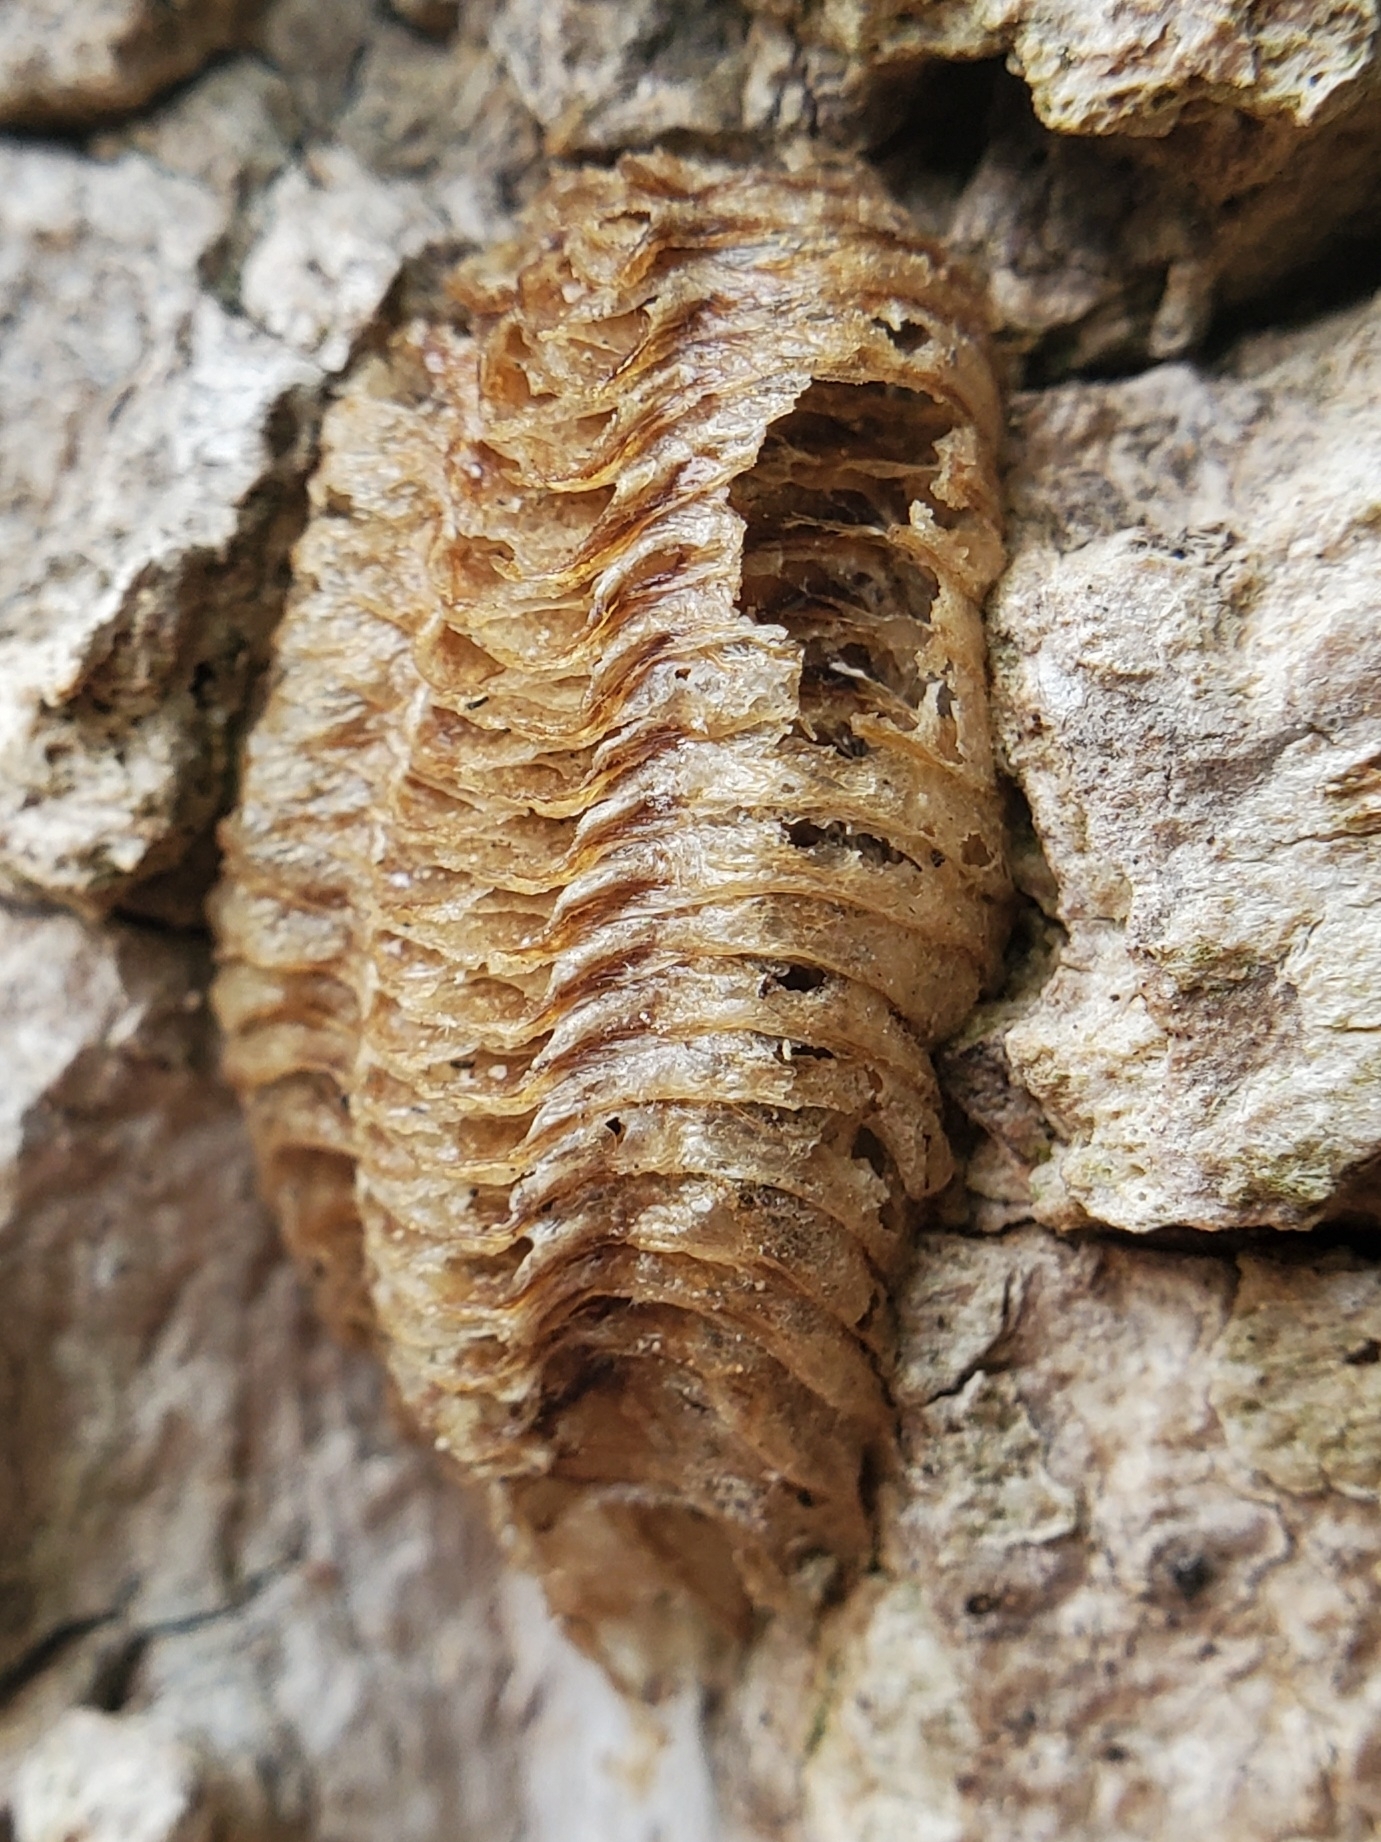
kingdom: Animalia
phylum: Arthropoda
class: Insecta
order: Mantodea
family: Mantidae
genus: Stagmomantis
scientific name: Stagmomantis carolina
